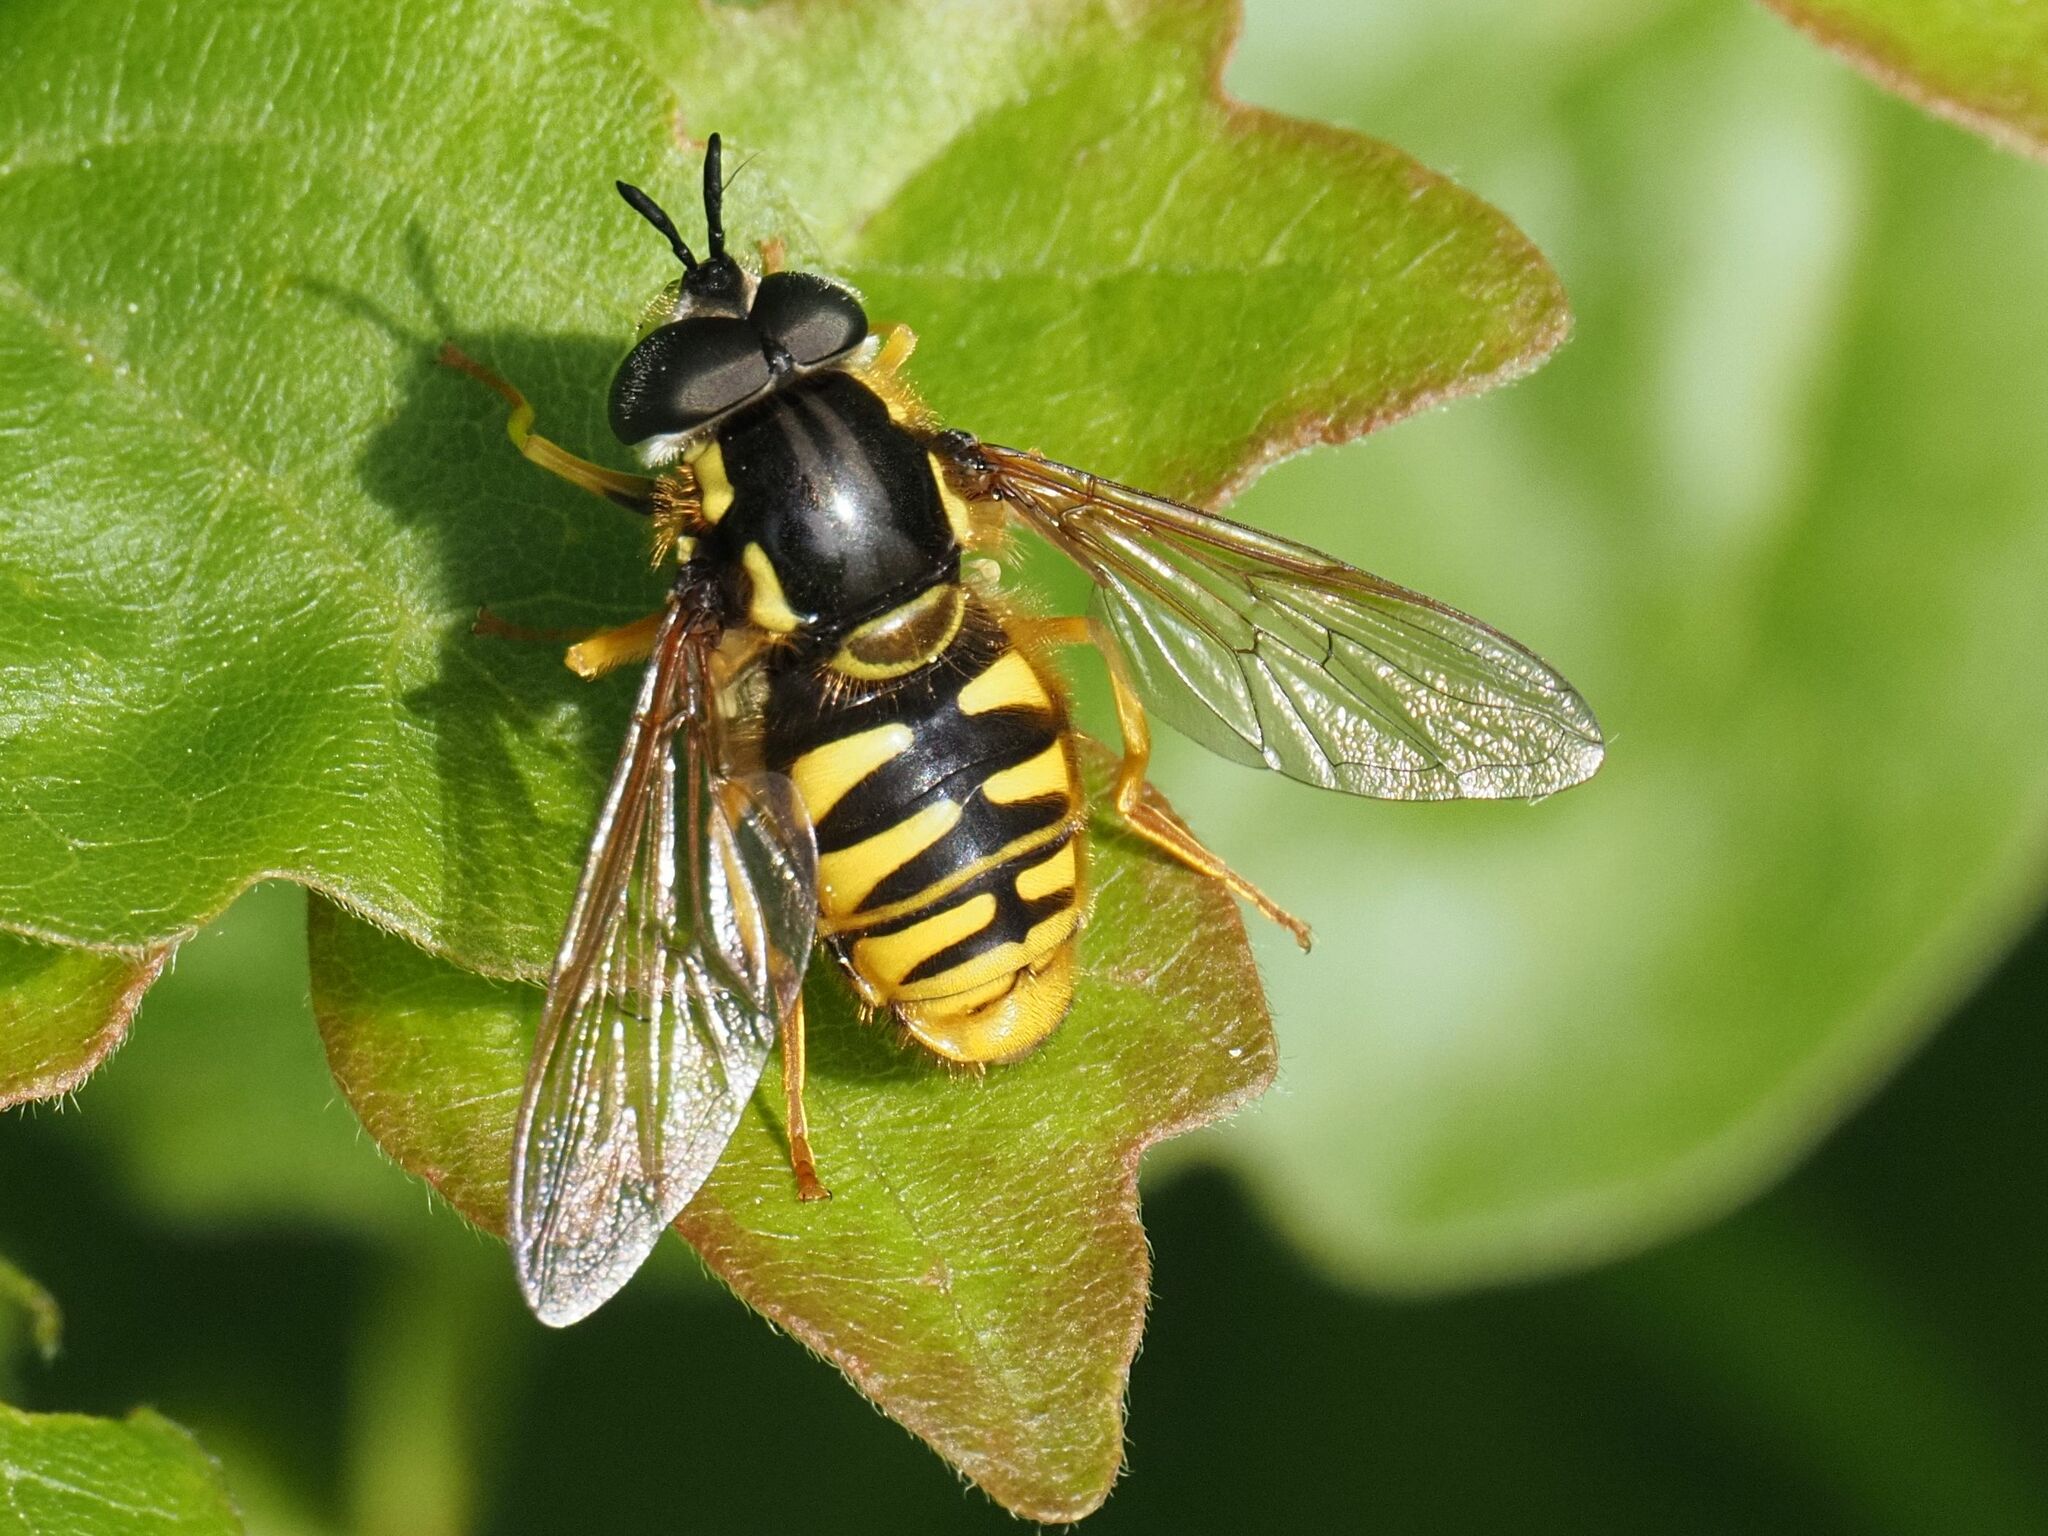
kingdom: Animalia
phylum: Arthropoda
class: Insecta
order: Diptera
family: Syrphidae
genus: Chrysotoxum
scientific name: Chrysotoxum cautum
